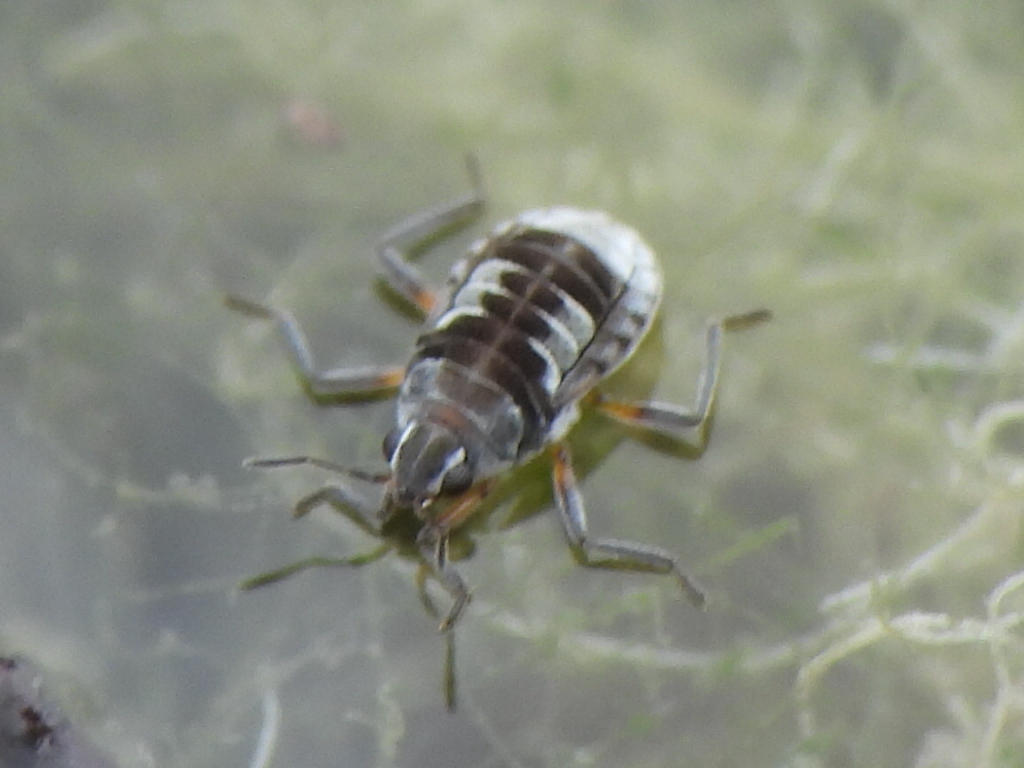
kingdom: Animalia
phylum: Arthropoda
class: Insecta
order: Hemiptera
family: Veliidae
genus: Microvelia
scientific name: Microvelia pulchella
